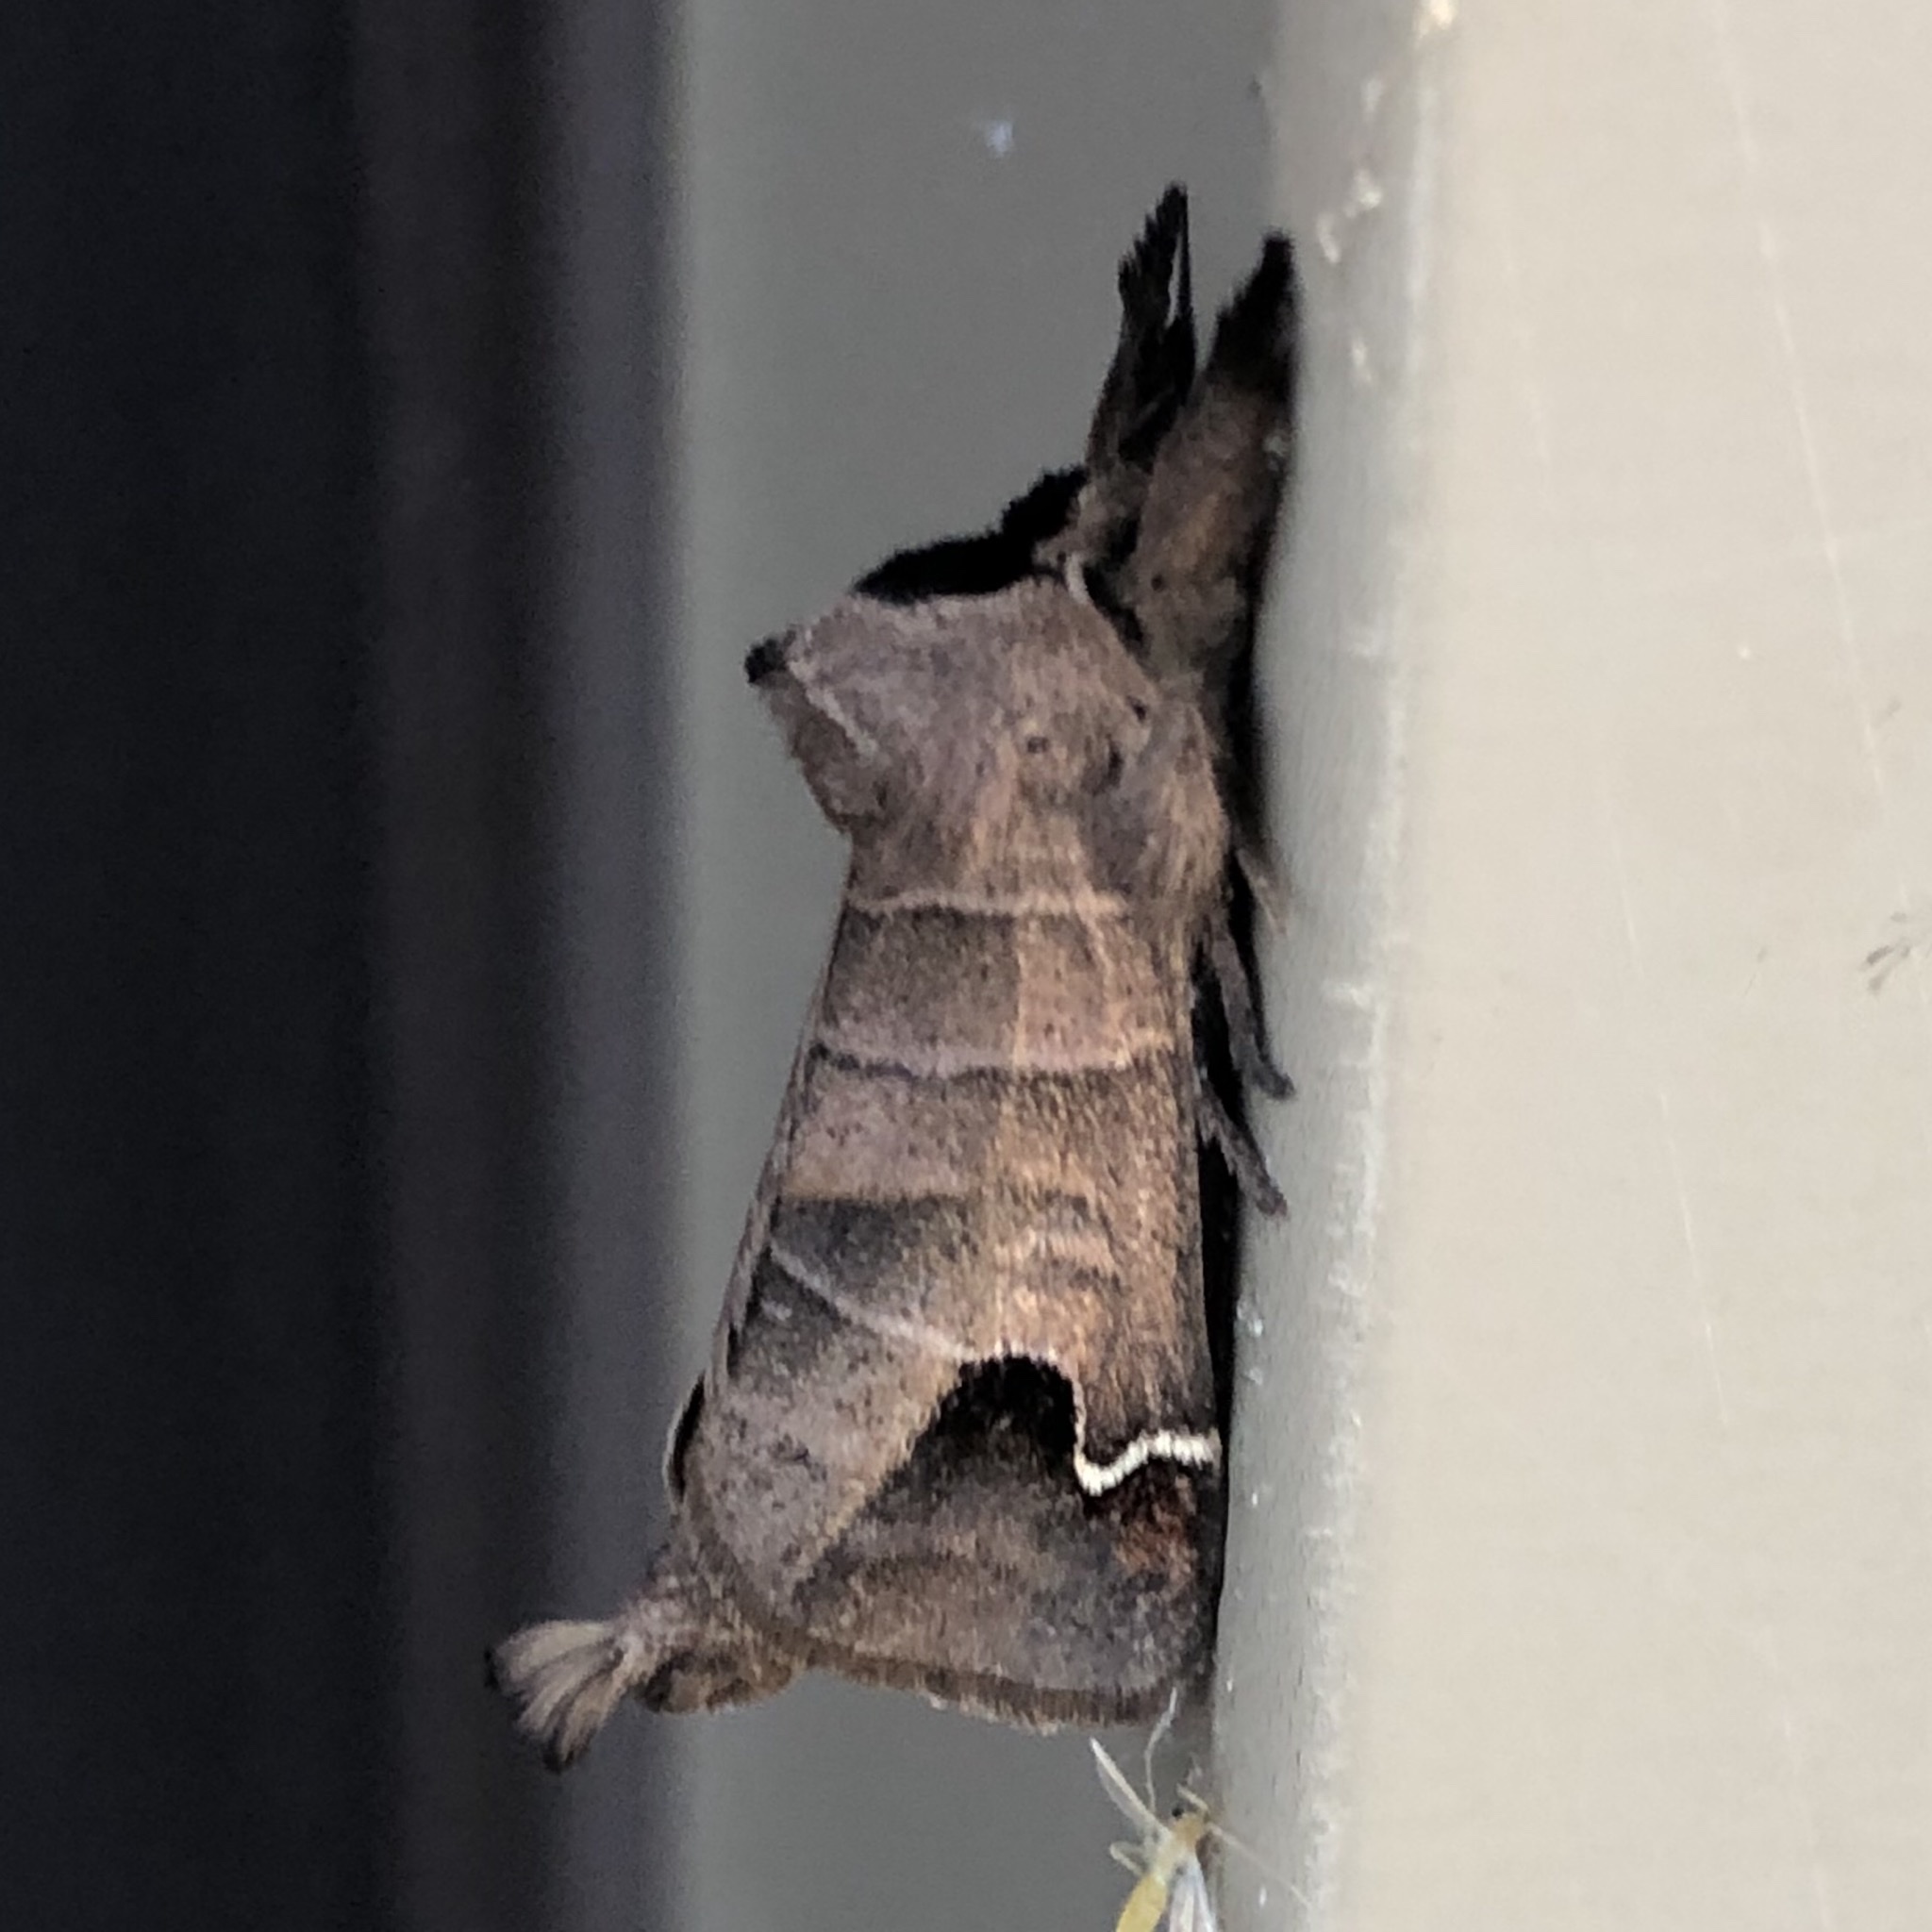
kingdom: Animalia
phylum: Arthropoda
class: Insecta
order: Lepidoptera
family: Notodontidae
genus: Clostera
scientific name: Clostera albosigma
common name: Sigmoid prominent
